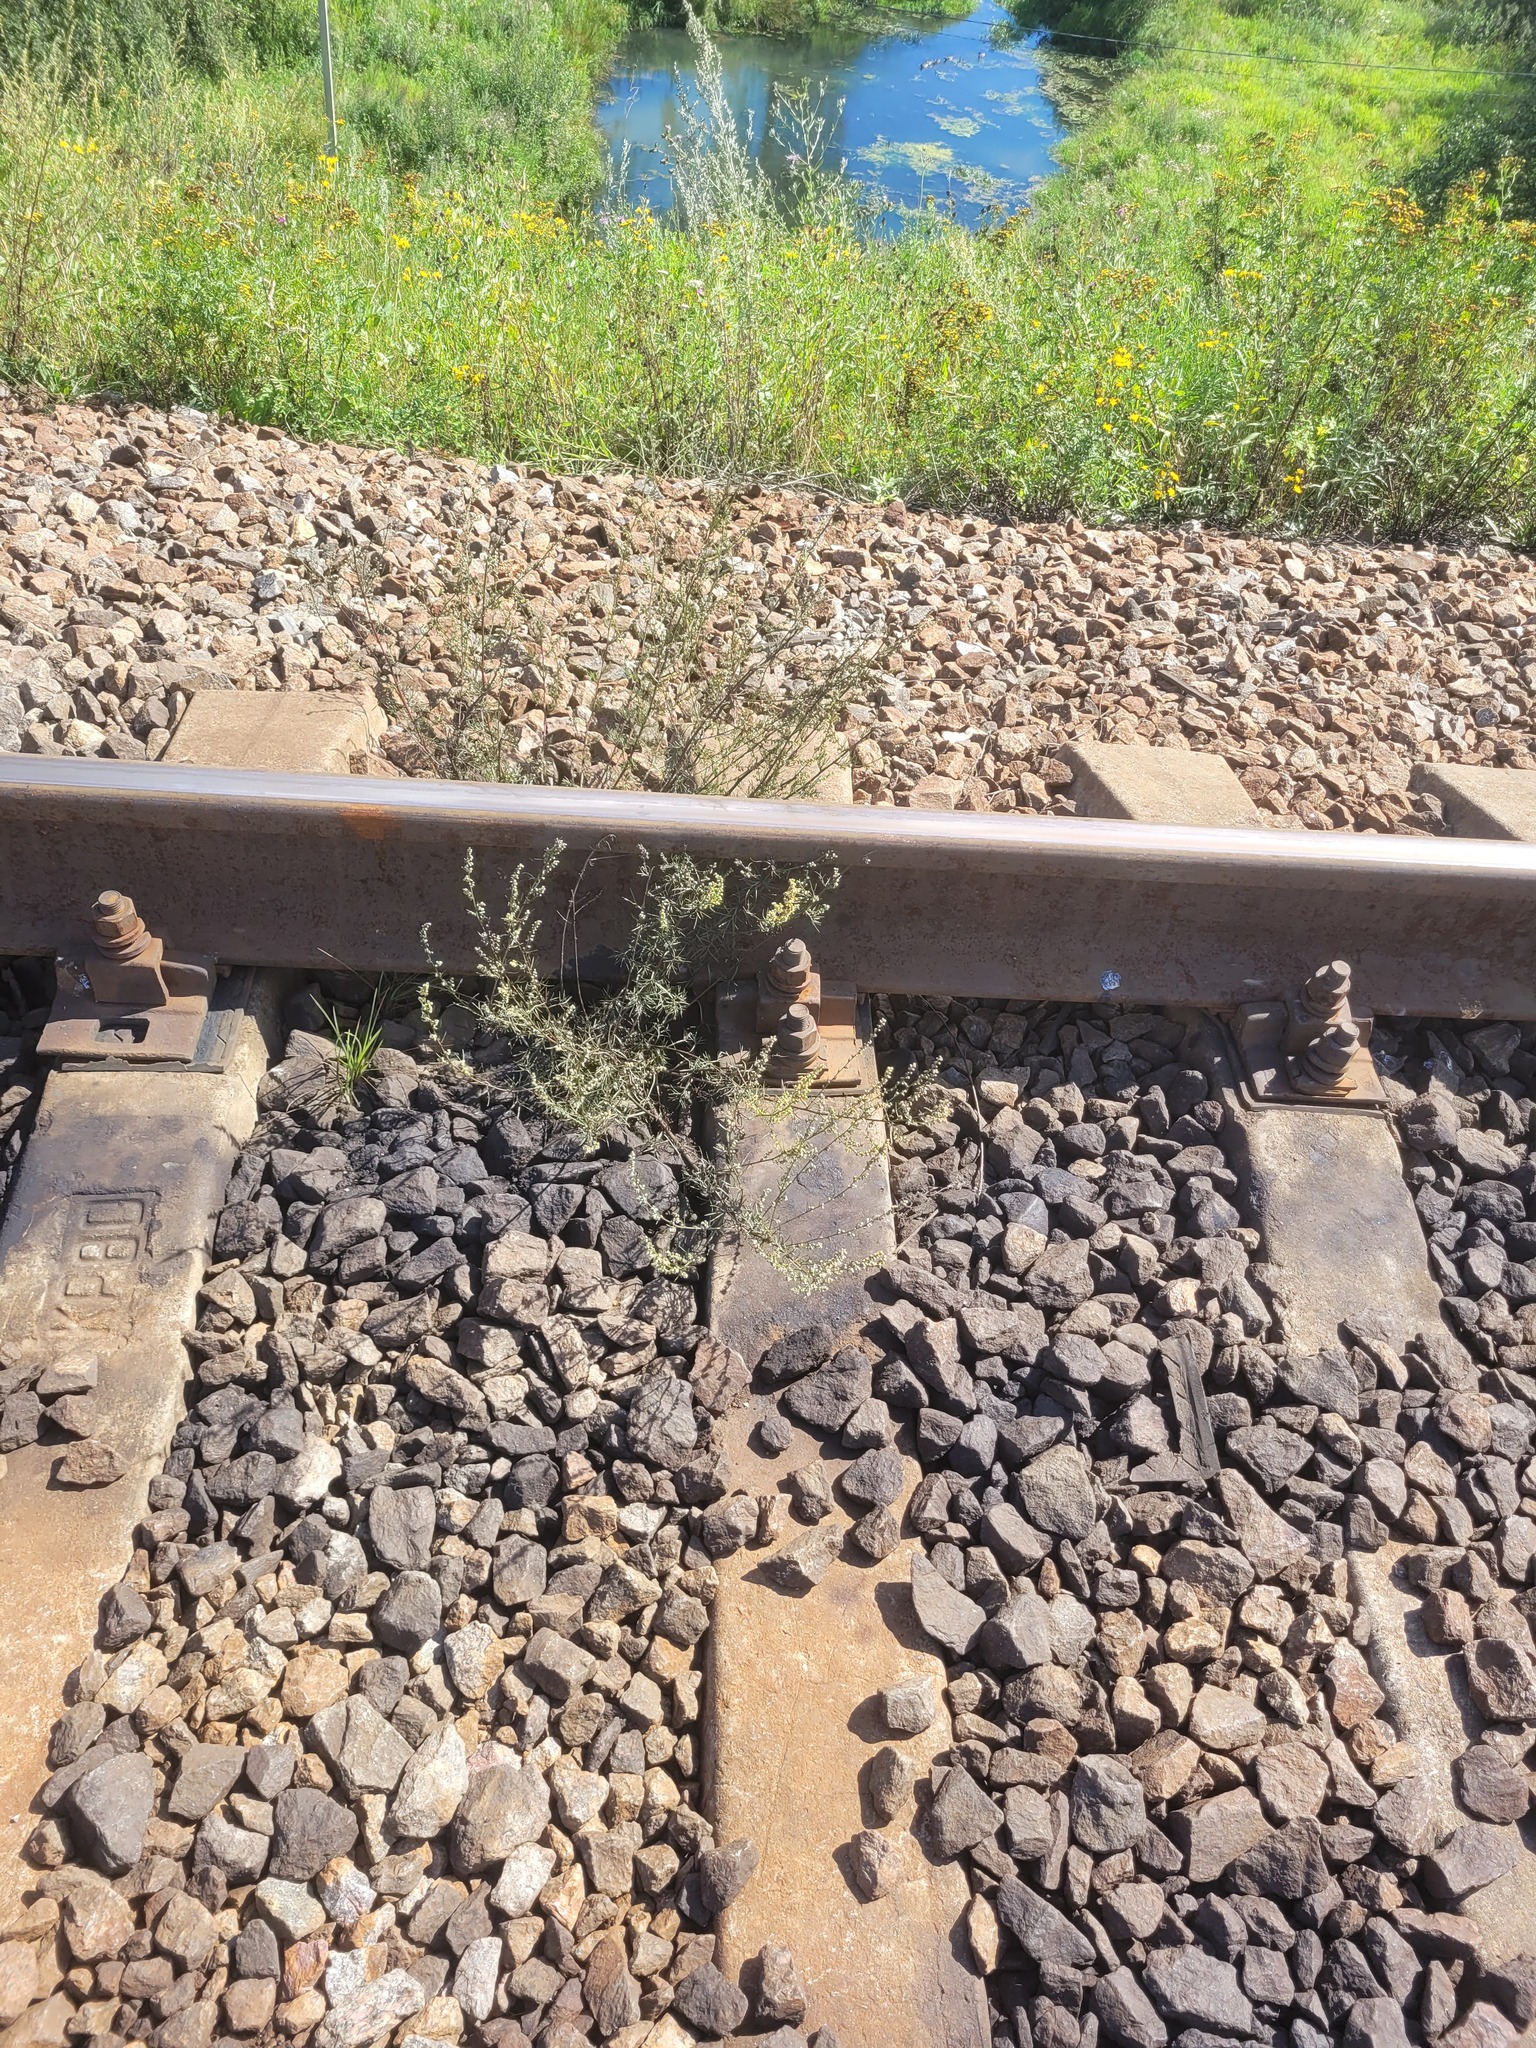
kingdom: Plantae
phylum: Tracheophyta
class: Magnoliopsida
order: Asterales
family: Asteraceae
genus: Artemisia
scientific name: Artemisia campestris
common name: Field wormwood
